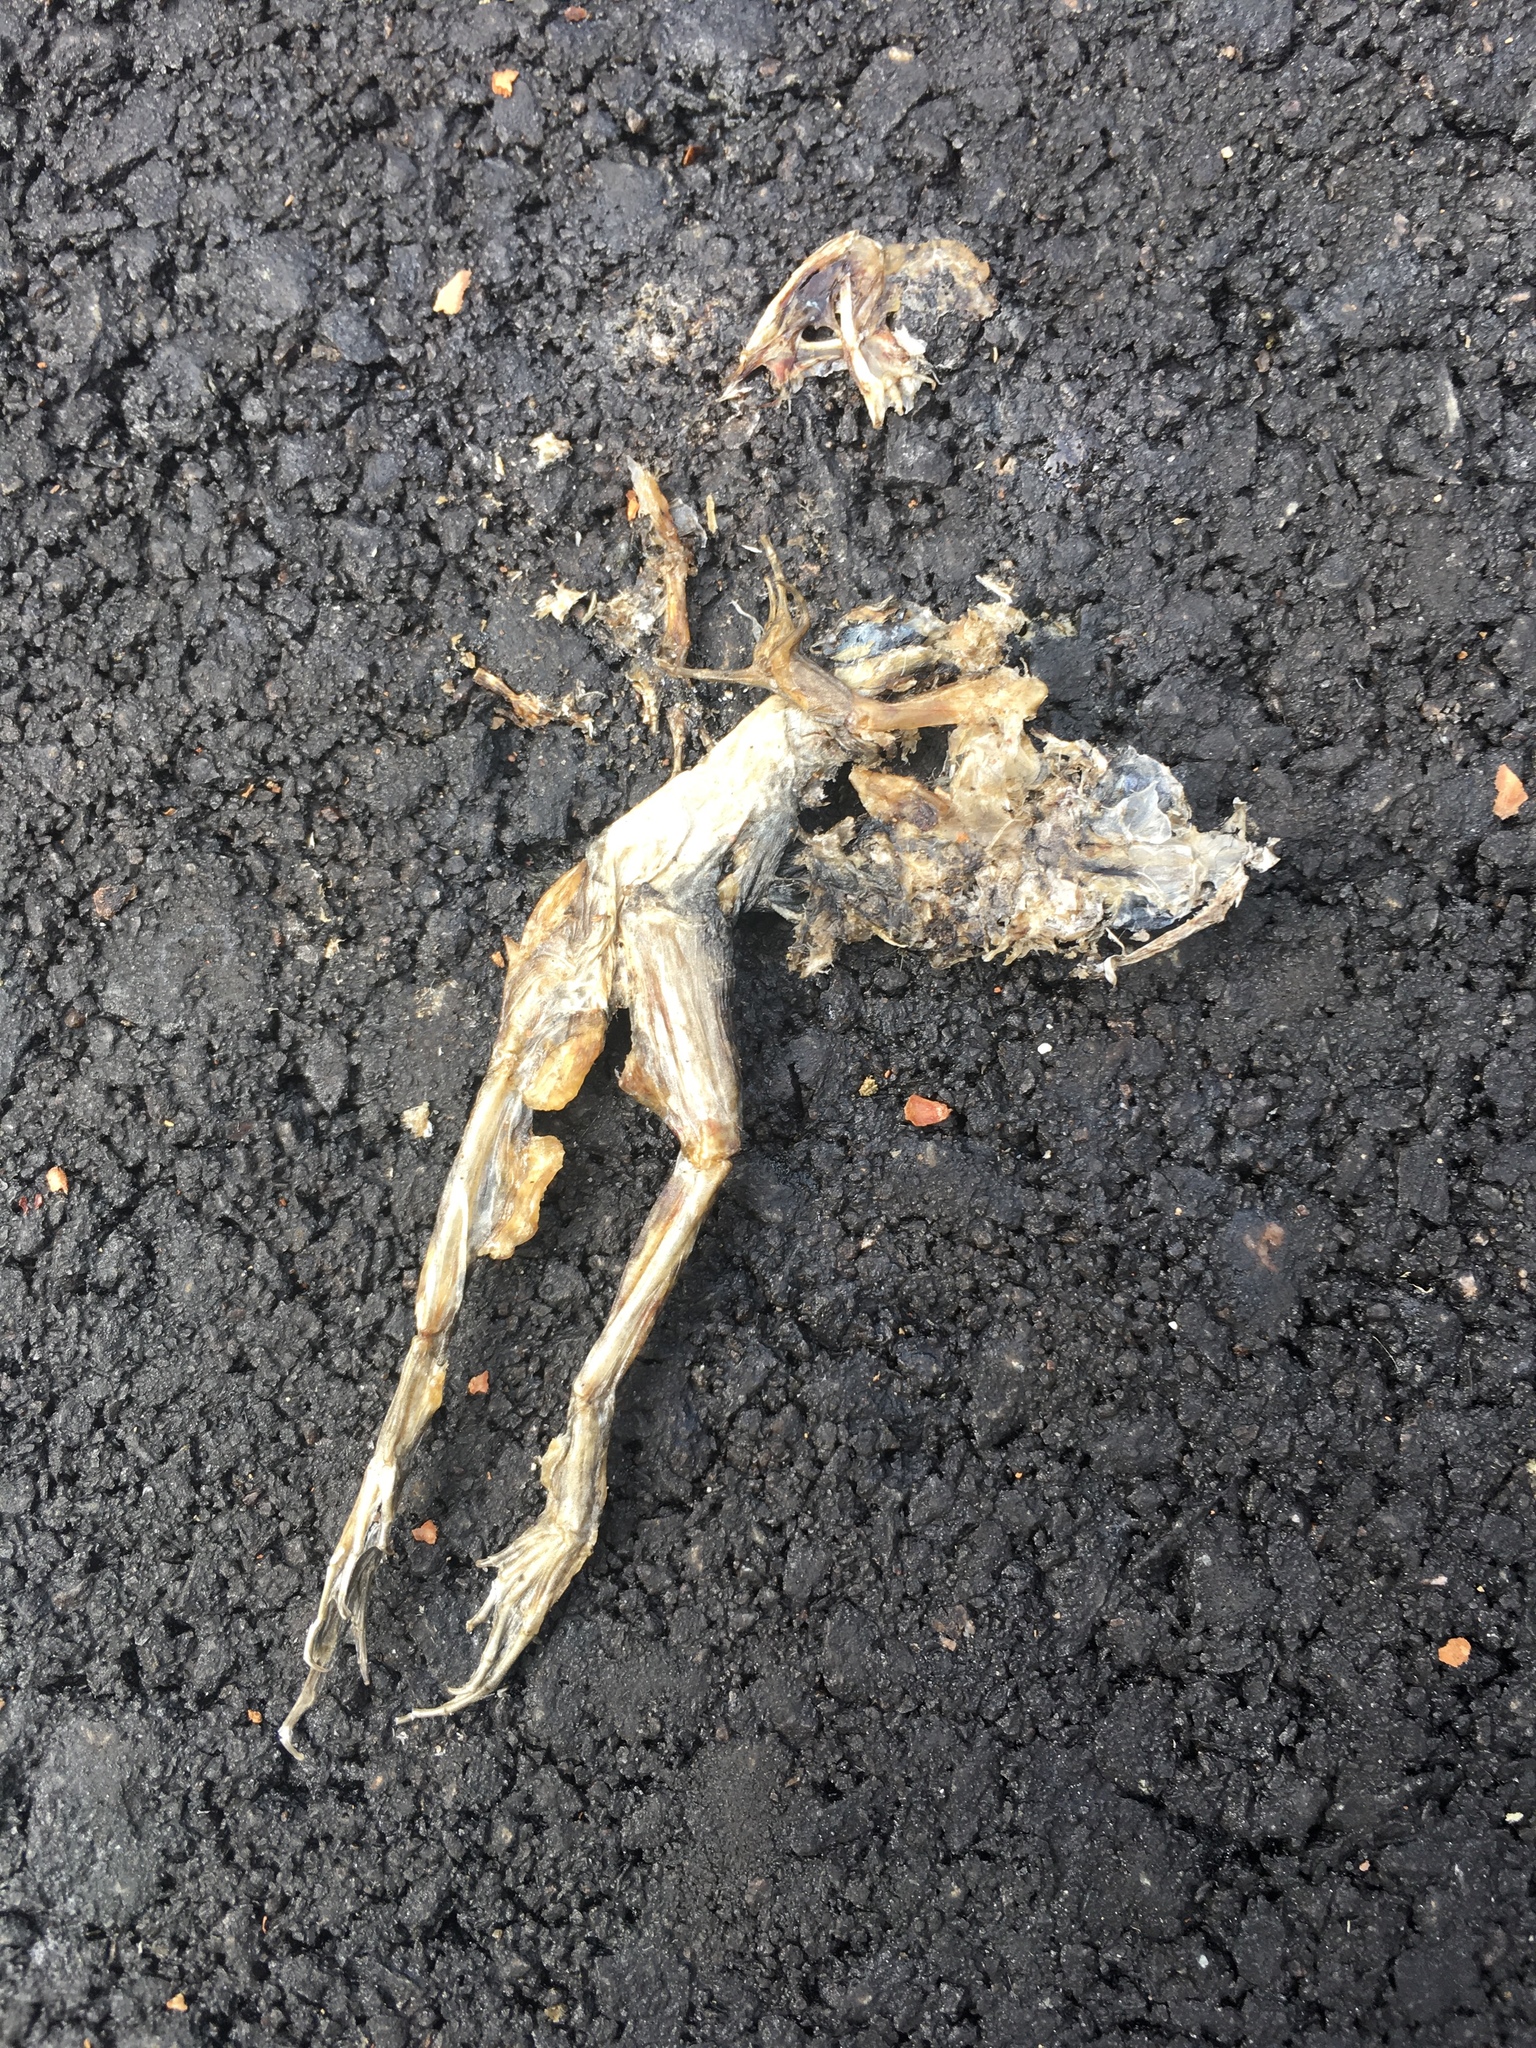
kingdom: Animalia
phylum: Chordata
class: Amphibia
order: Anura
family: Ranidae
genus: Lithobates
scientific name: Lithobates
